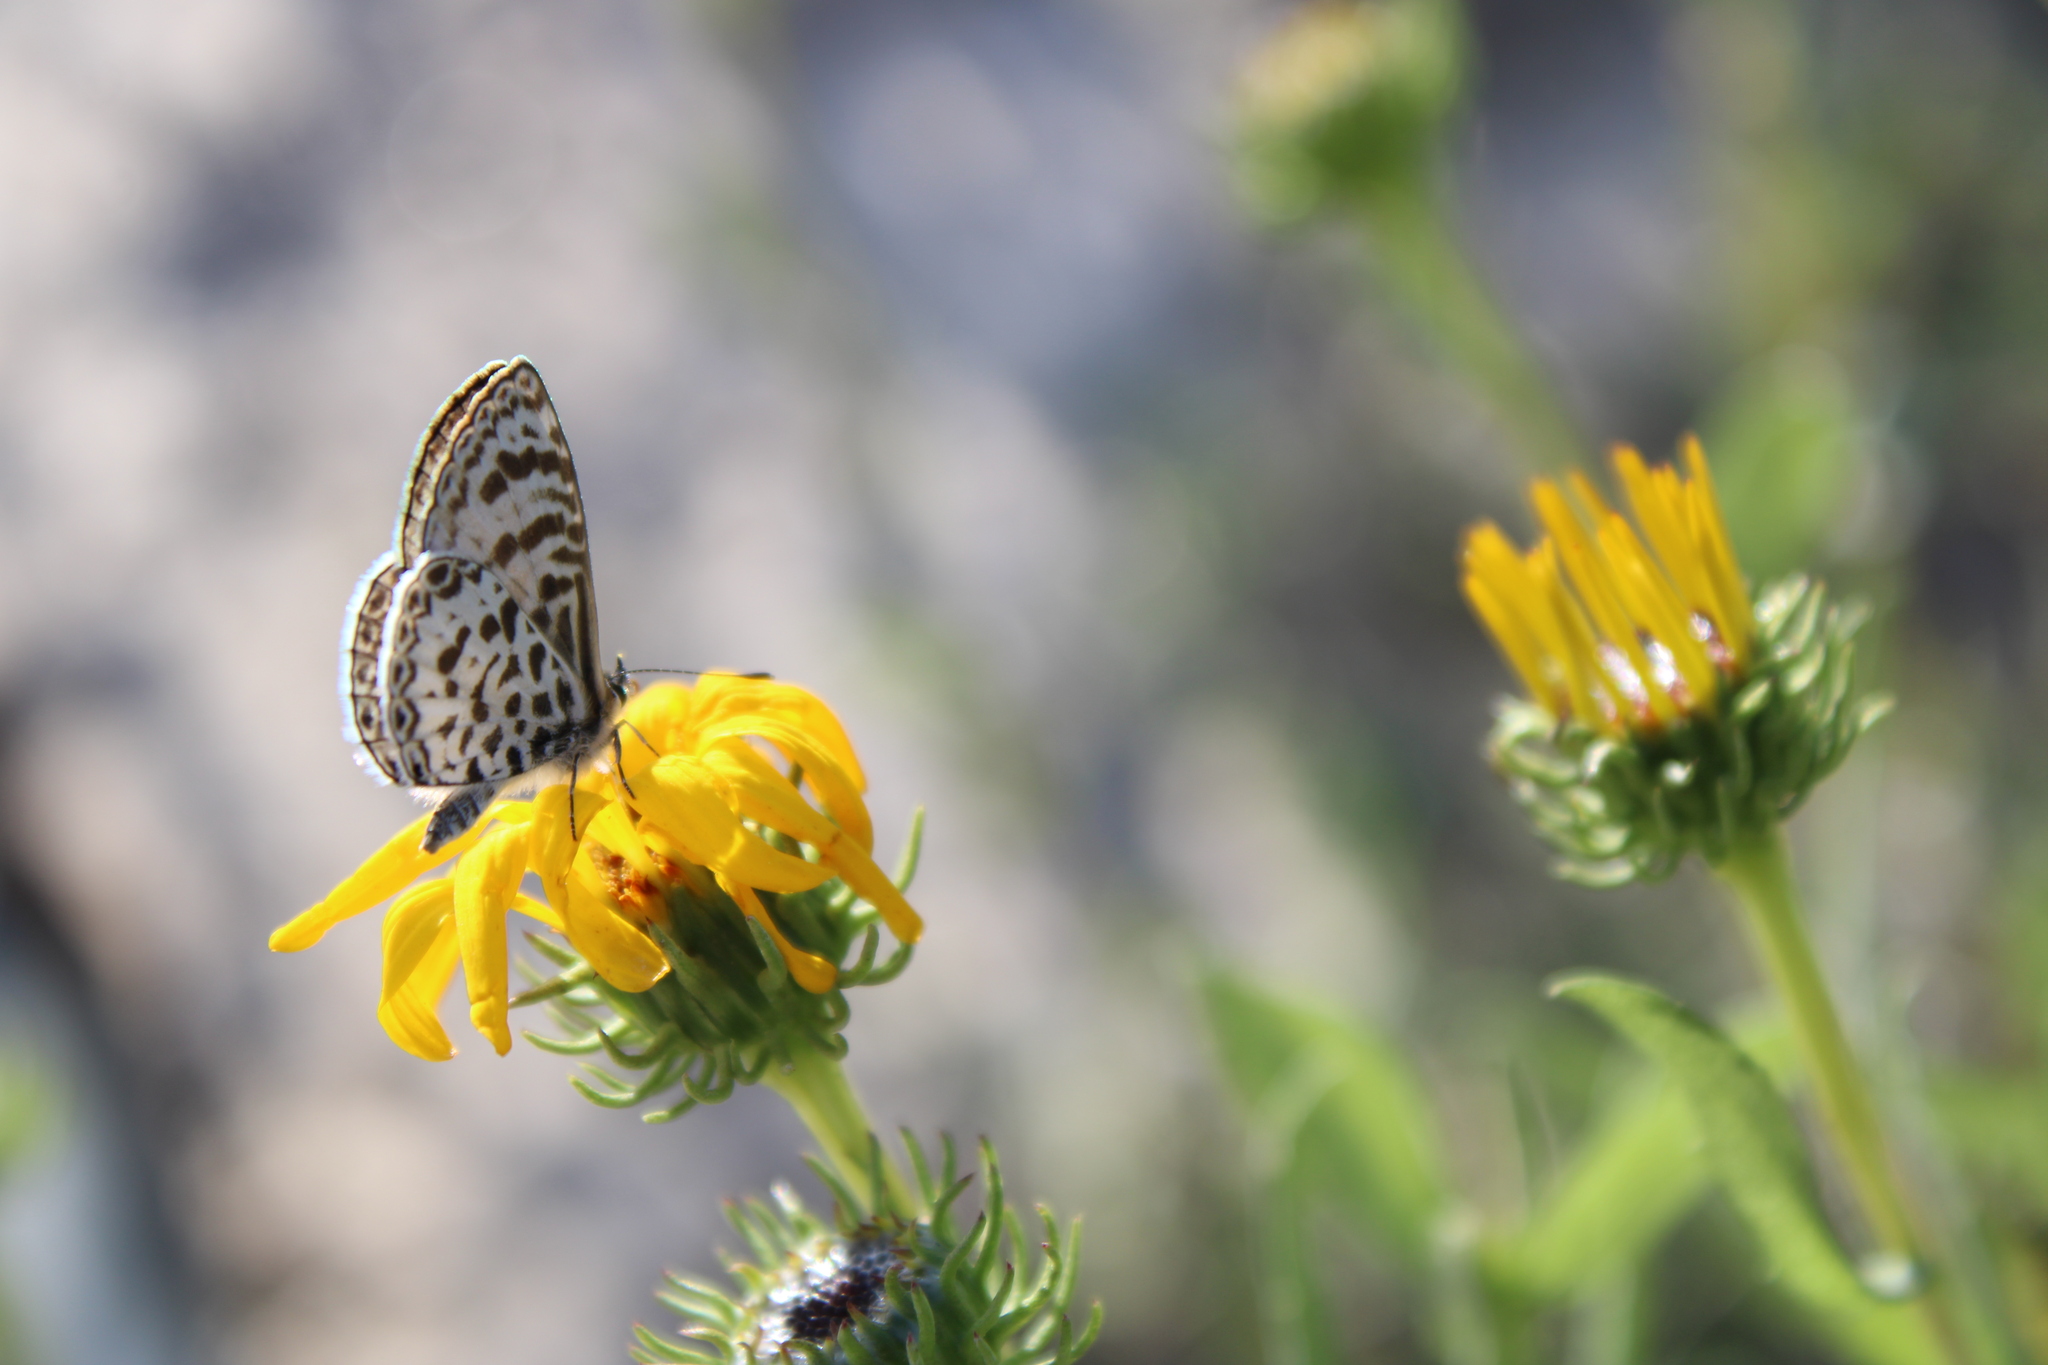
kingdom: Animalia
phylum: Arthropoda
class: Insecta
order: Lepidoptera
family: Lycaenidae
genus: Leptotes
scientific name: Leptotes cassius
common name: Cassius blue
